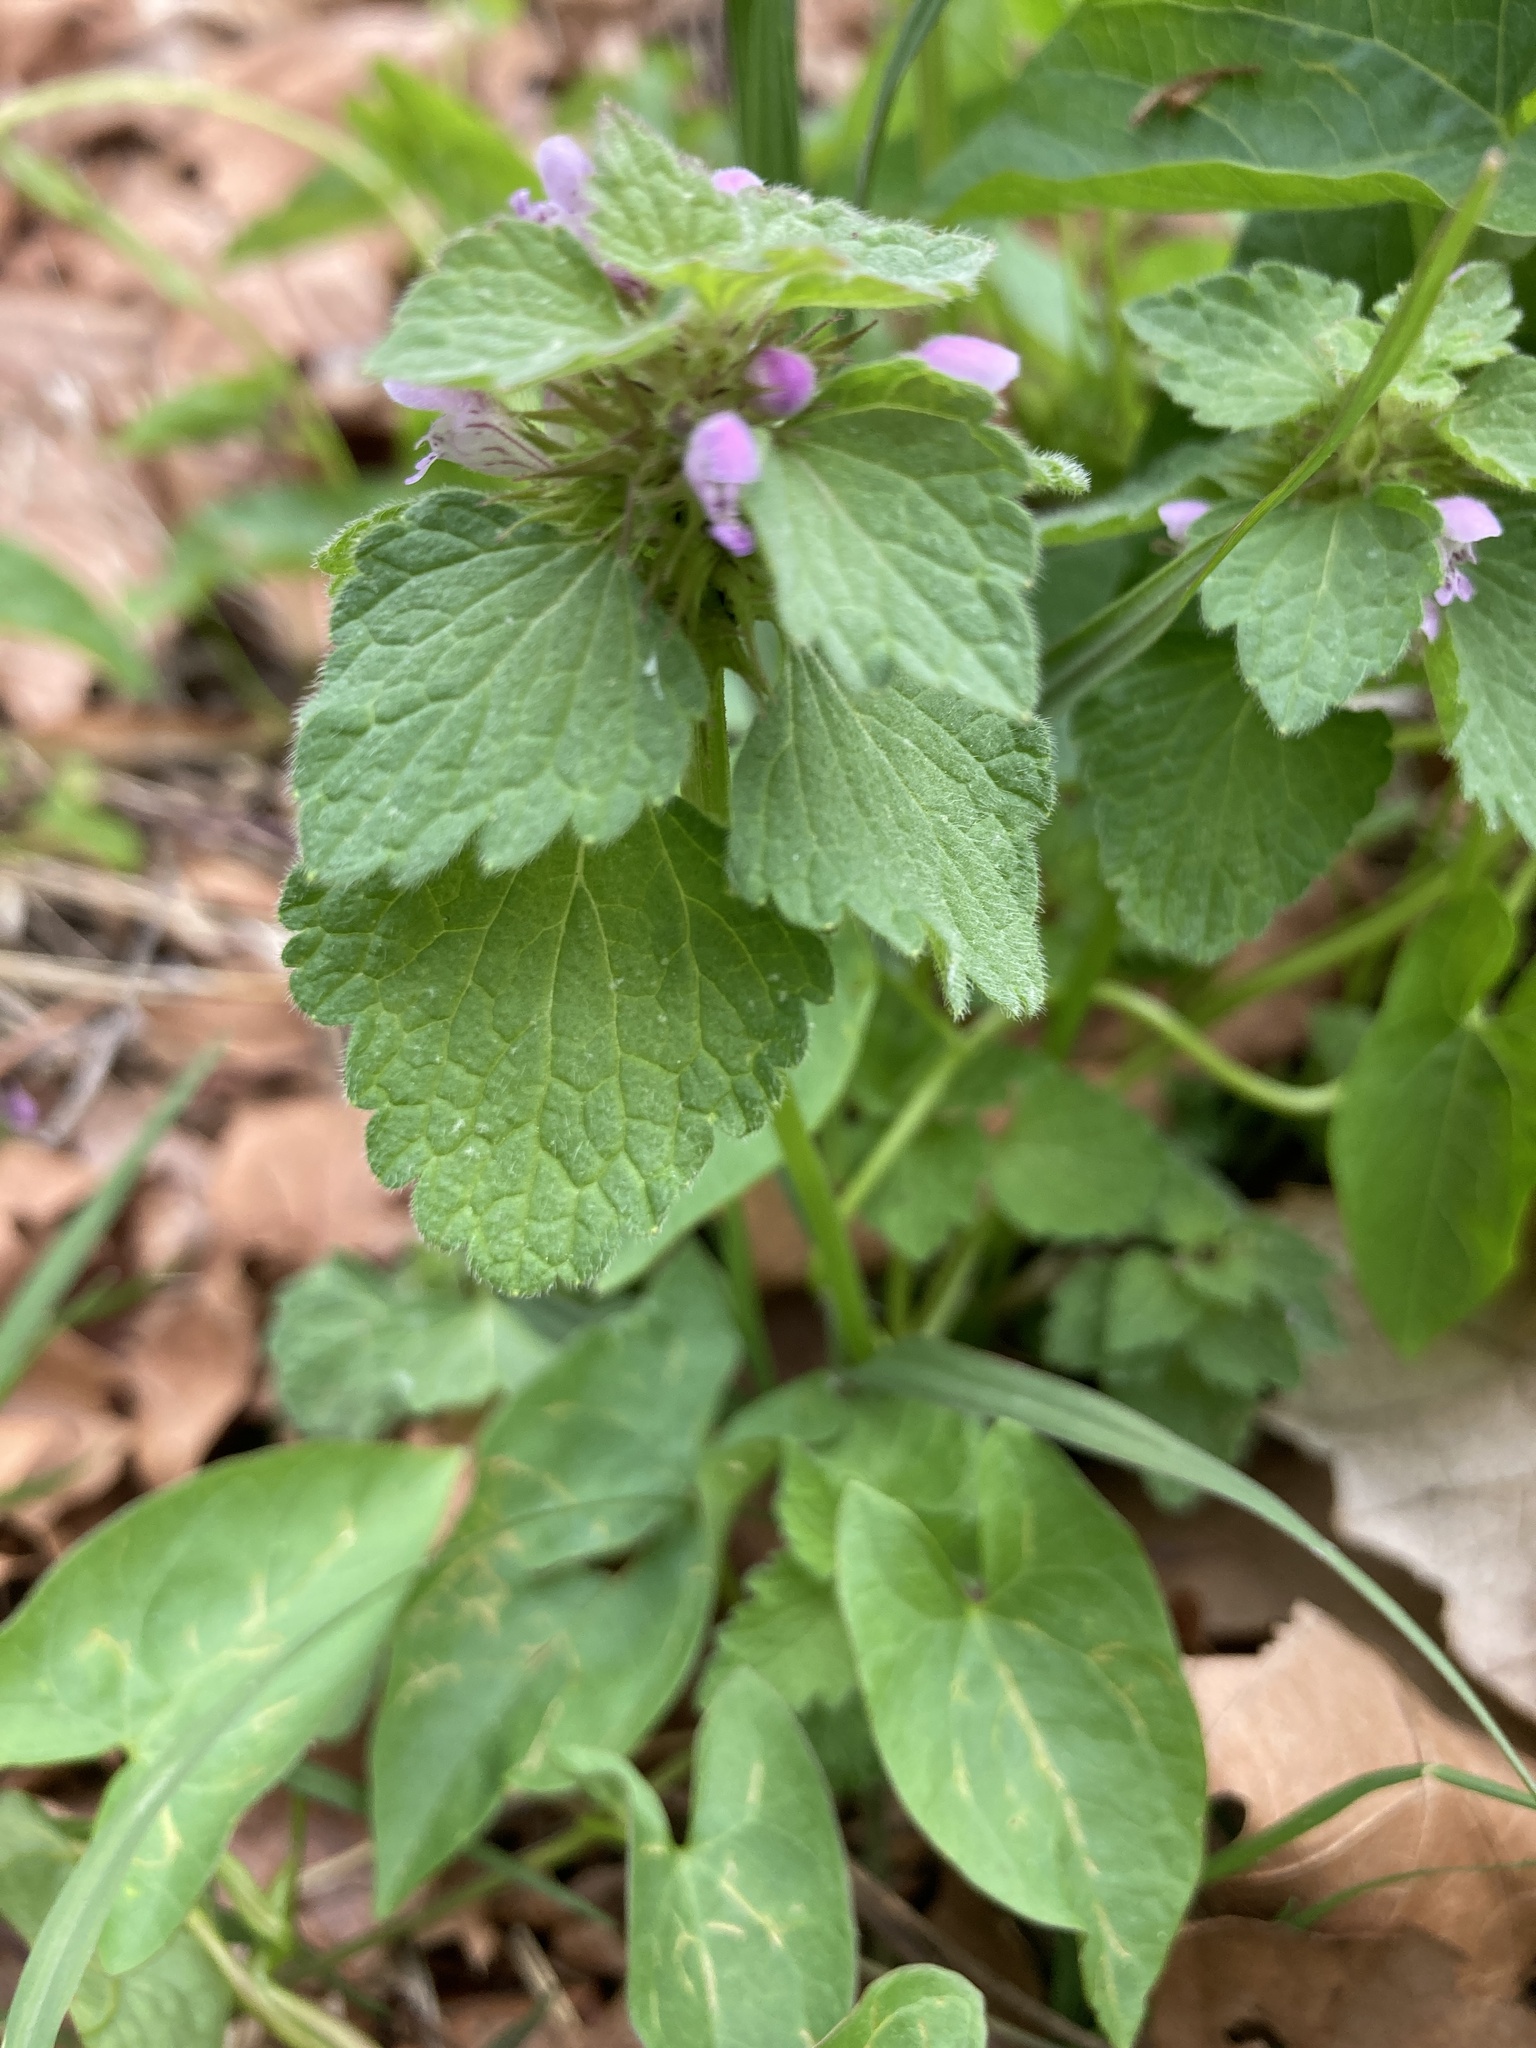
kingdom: Plantae
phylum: Tracheophyta
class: Magnoliopsida
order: Lamiales
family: Lamiaceae
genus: Lamium
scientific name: Lamium purpureum
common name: Red dead-nettle
